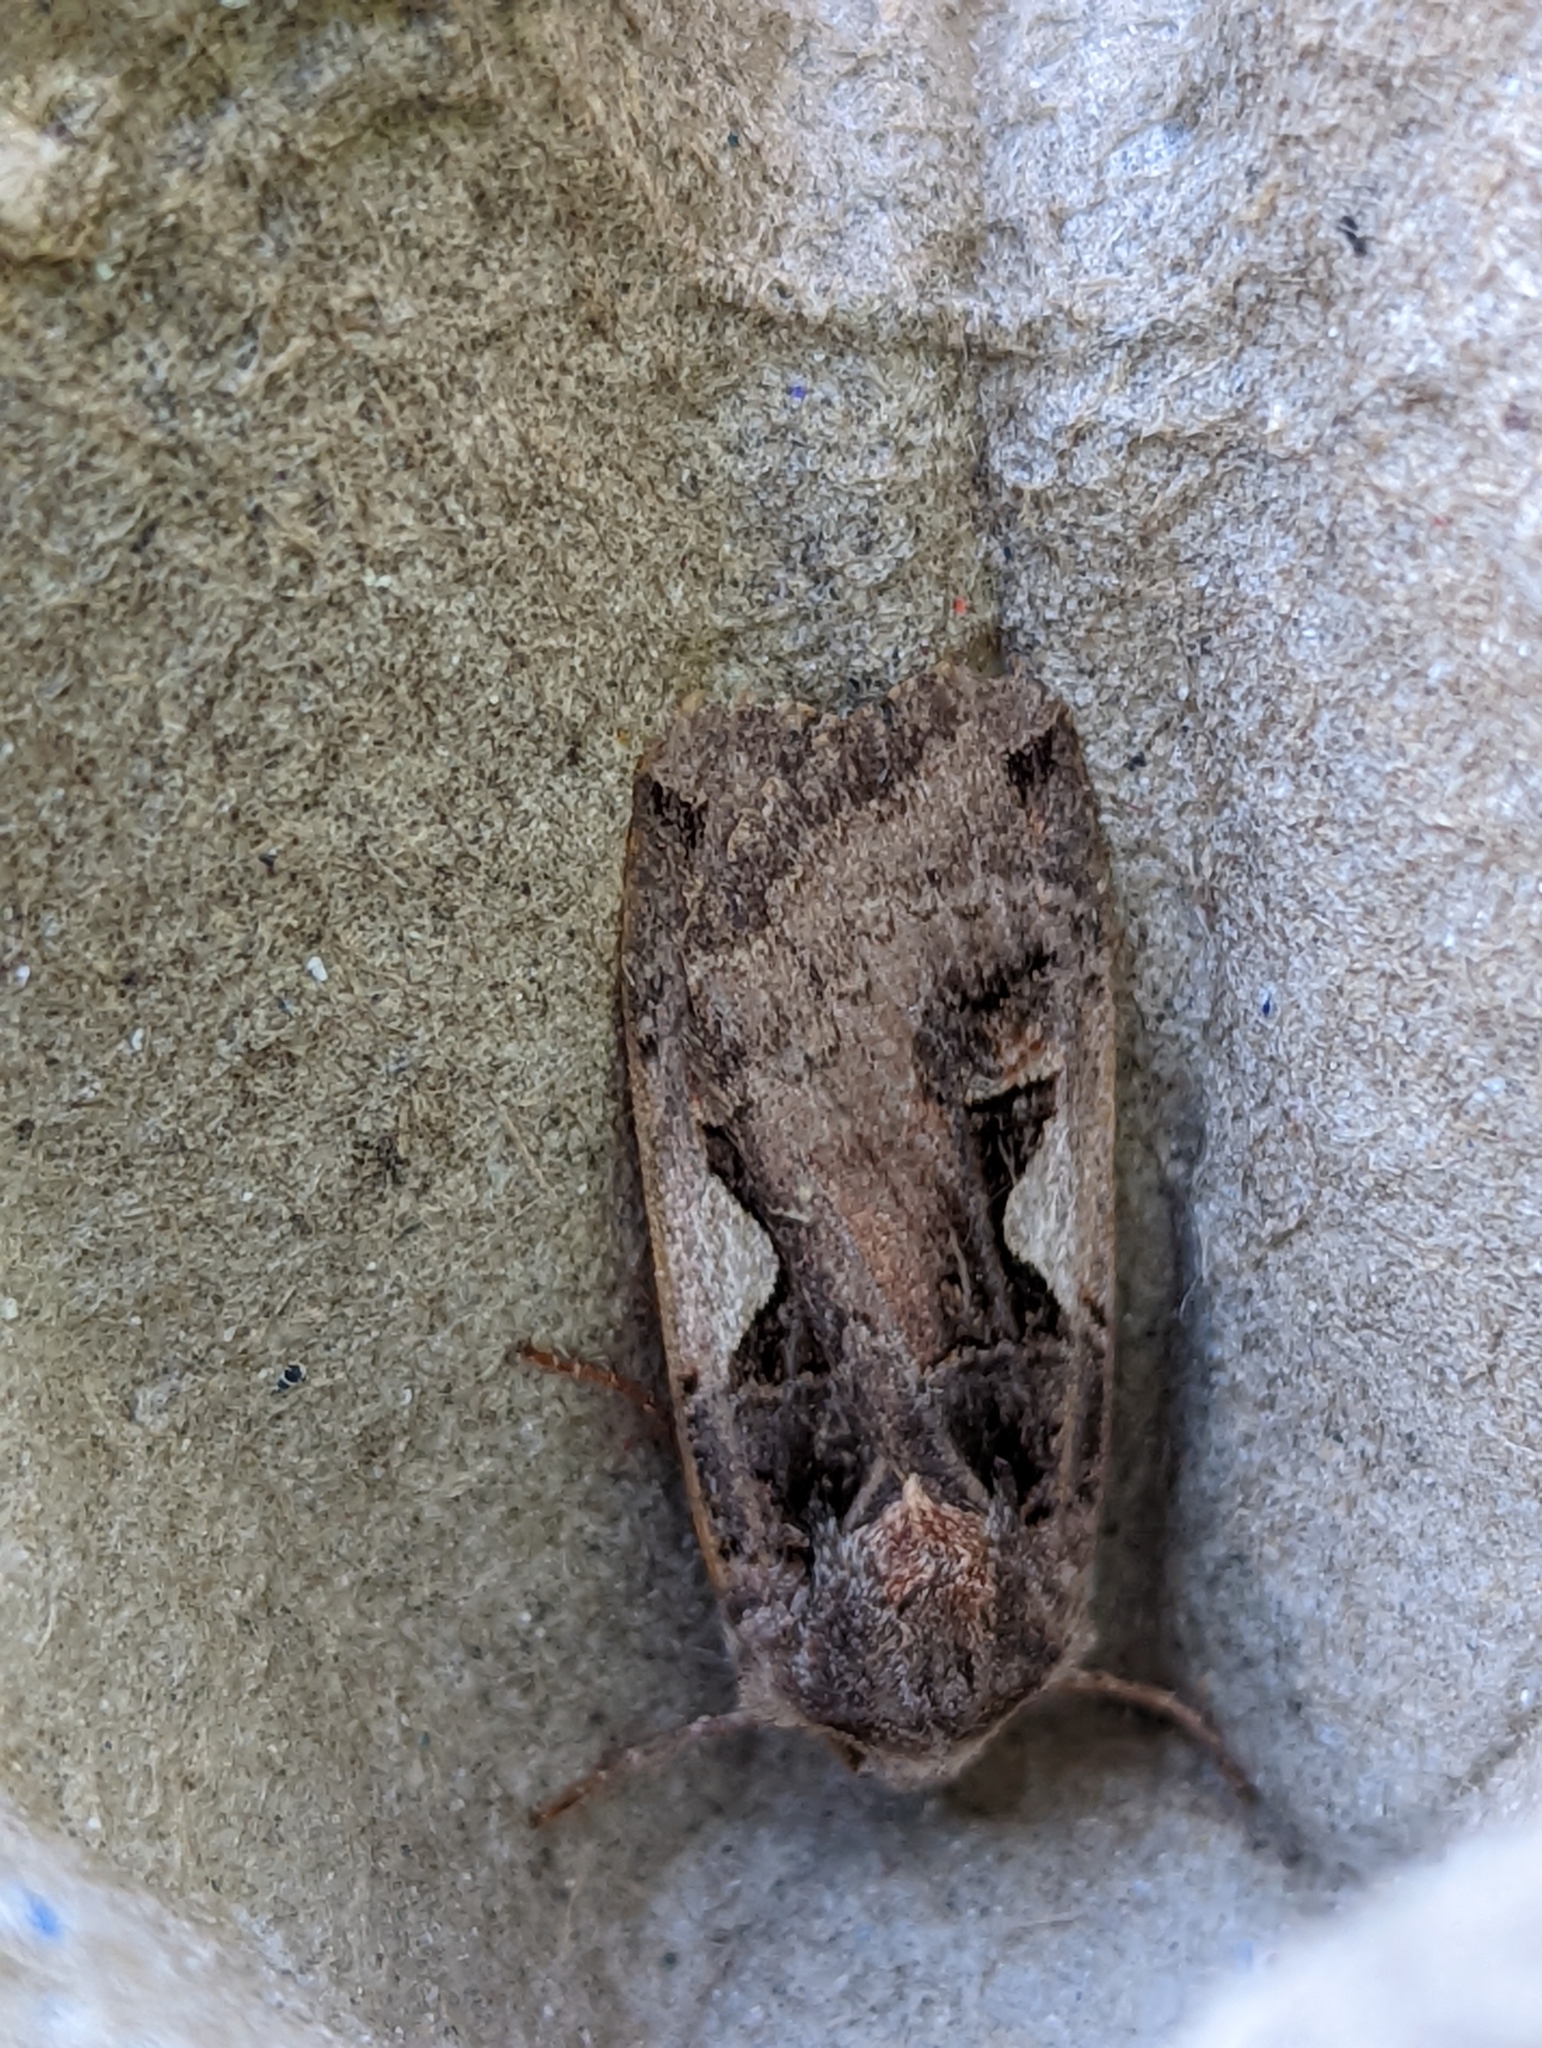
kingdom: Animalia
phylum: Arthropoda
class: Insecta
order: Lepidoptera
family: Noctuidae
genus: Xestia
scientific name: Xestia c-nigrum
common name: Setaceous hebrew character
